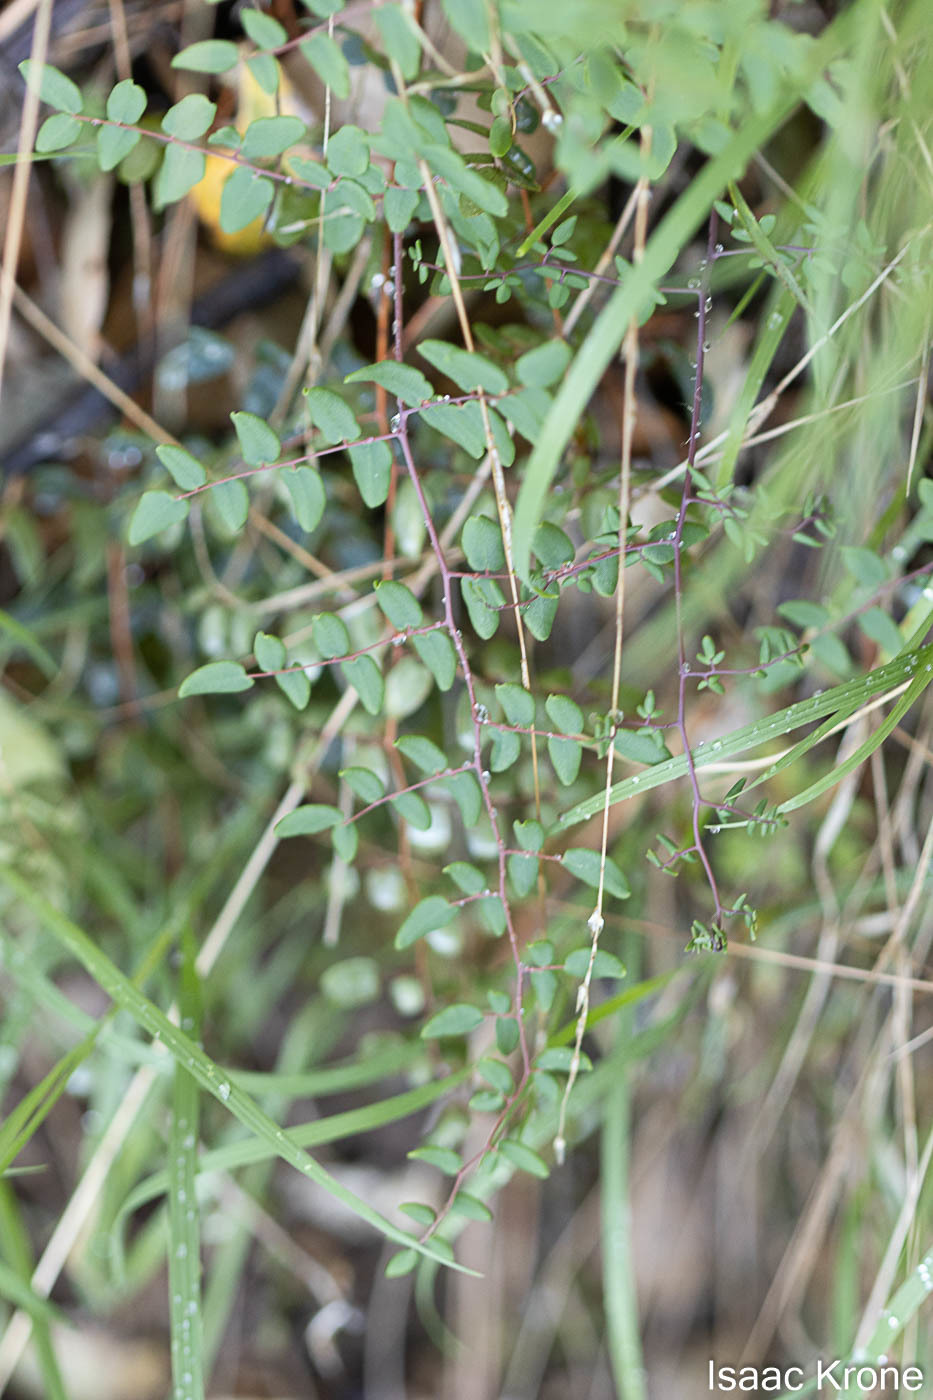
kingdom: Plantae
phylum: Tracheophyta
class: Polypodiopsida
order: Polypodiales
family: Pteridaceae
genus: Pellaea
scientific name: Pellaea andromedifolia
